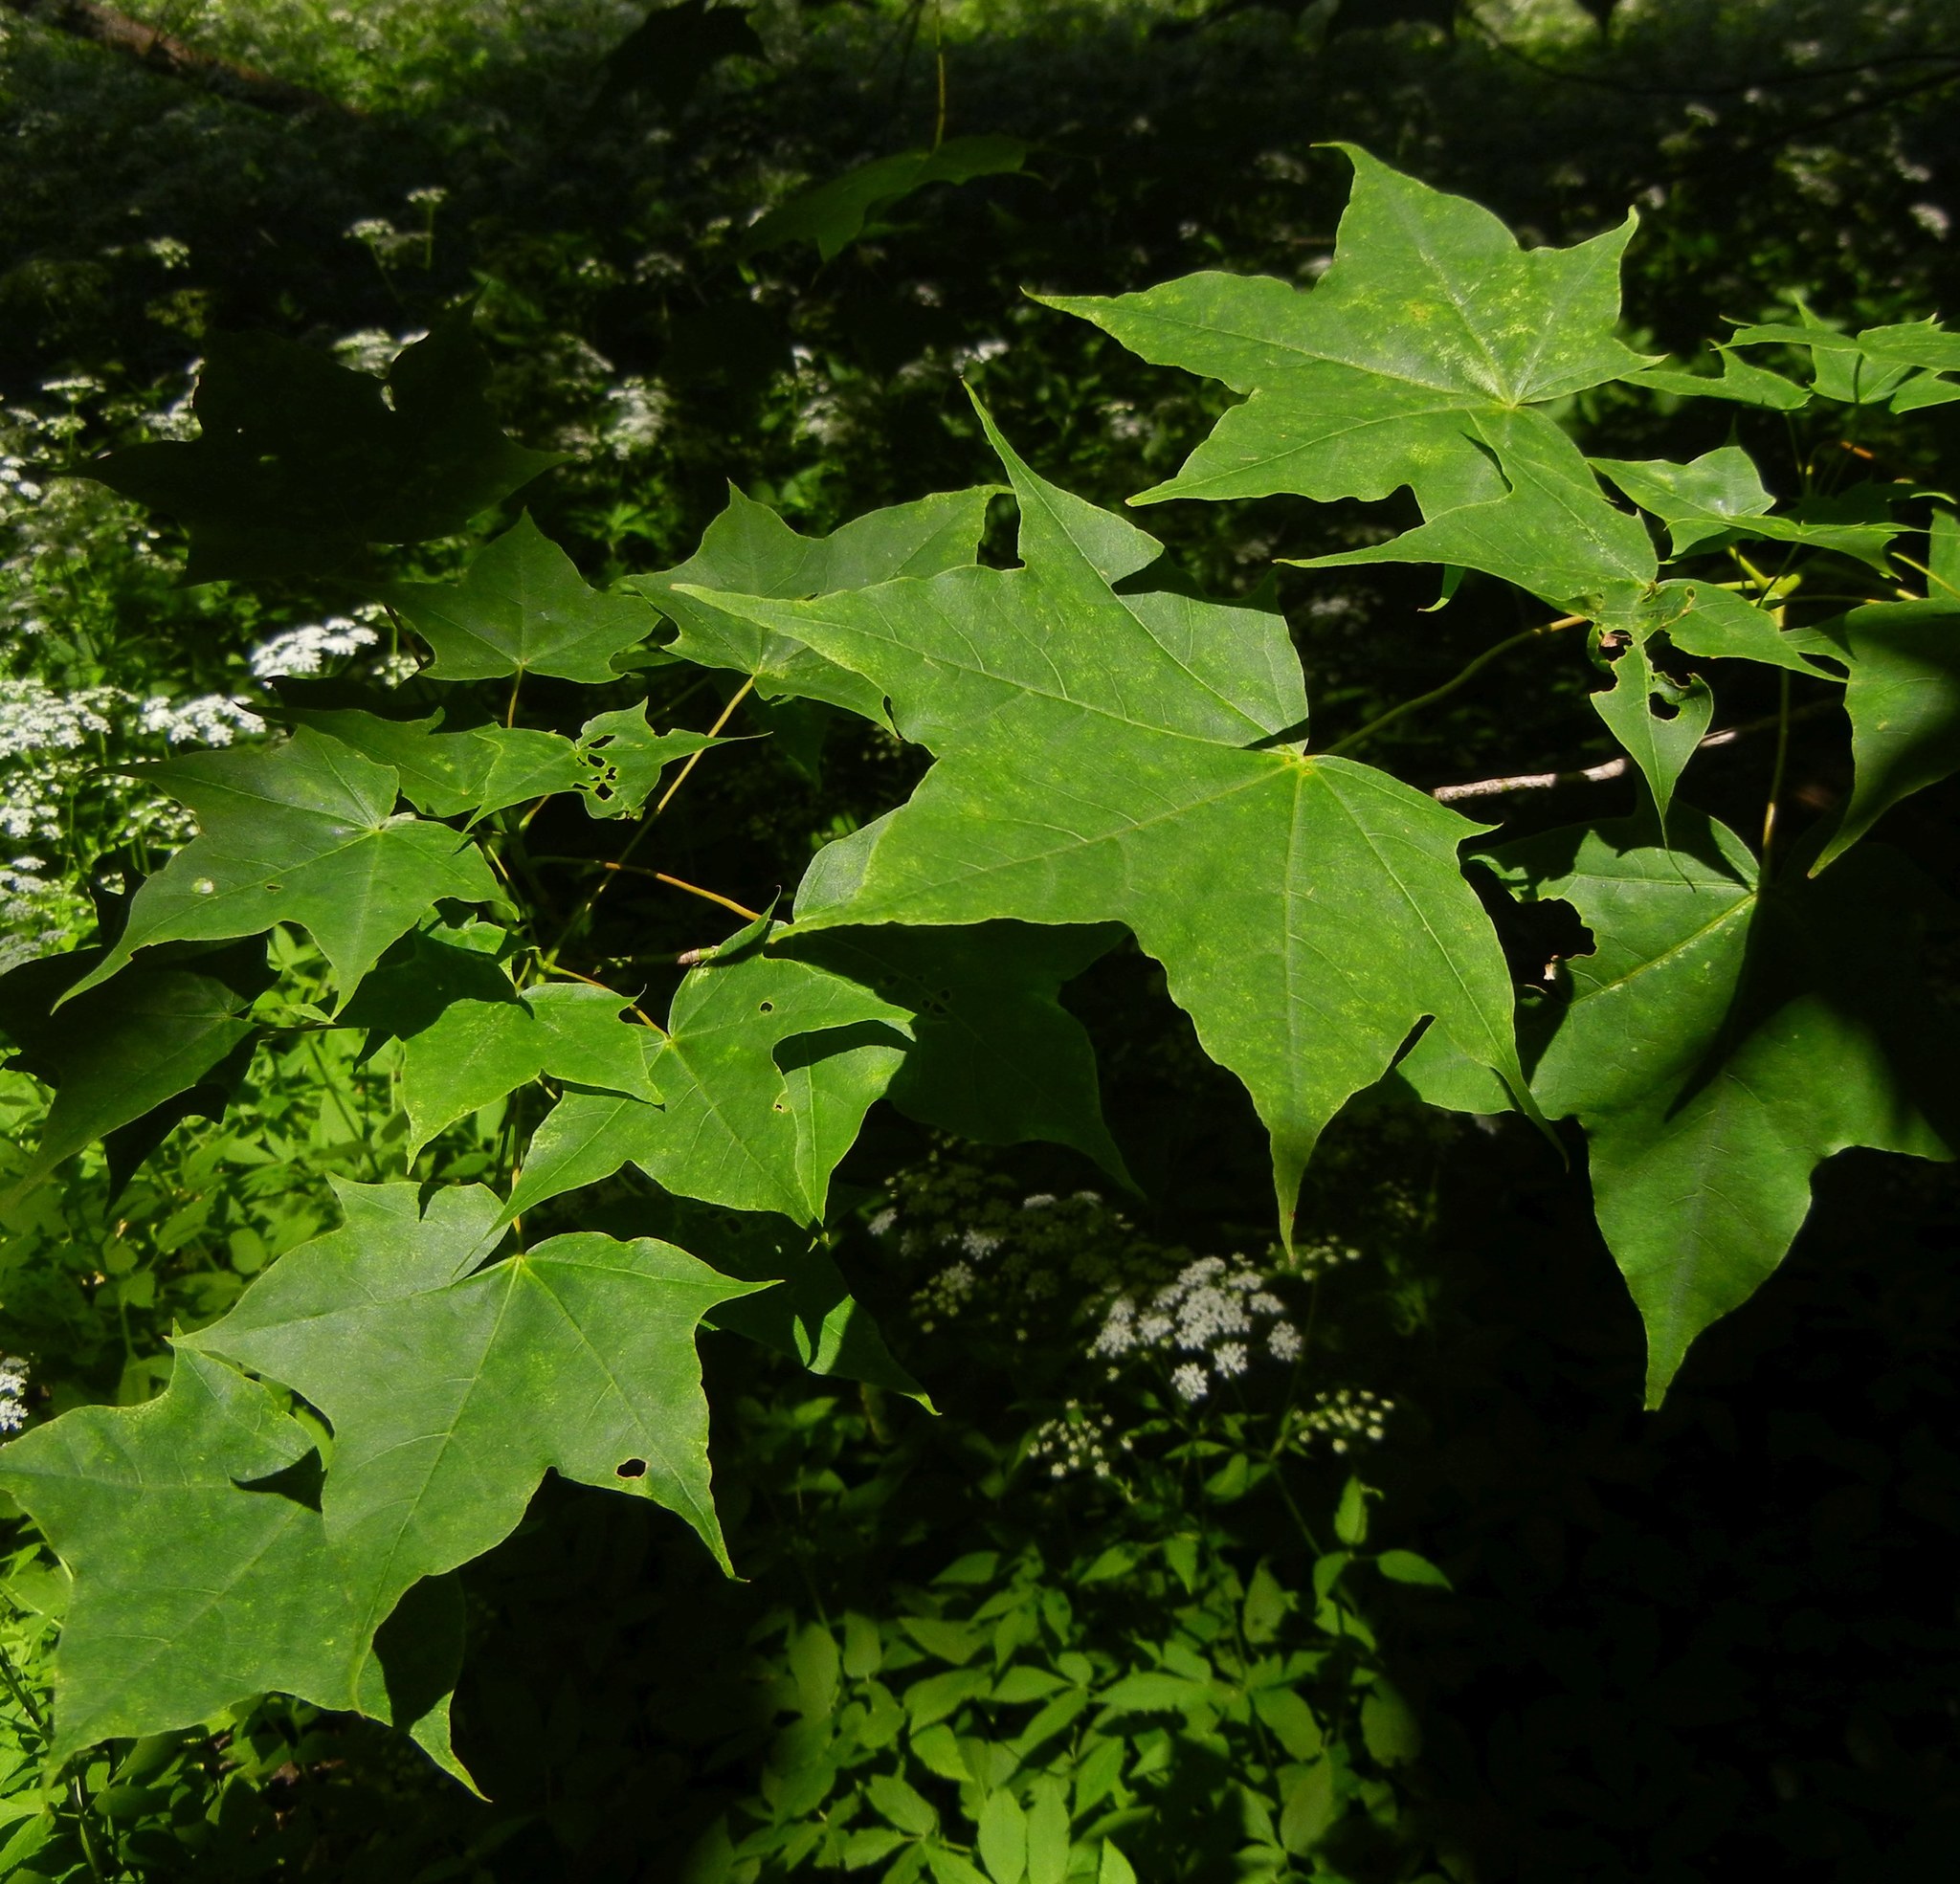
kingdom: Plantae
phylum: Tracheophyta
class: Magnoliopsida
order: Sapindales
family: Sapindaceae
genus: Acer
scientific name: Acer platanoides
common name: Norway maple
